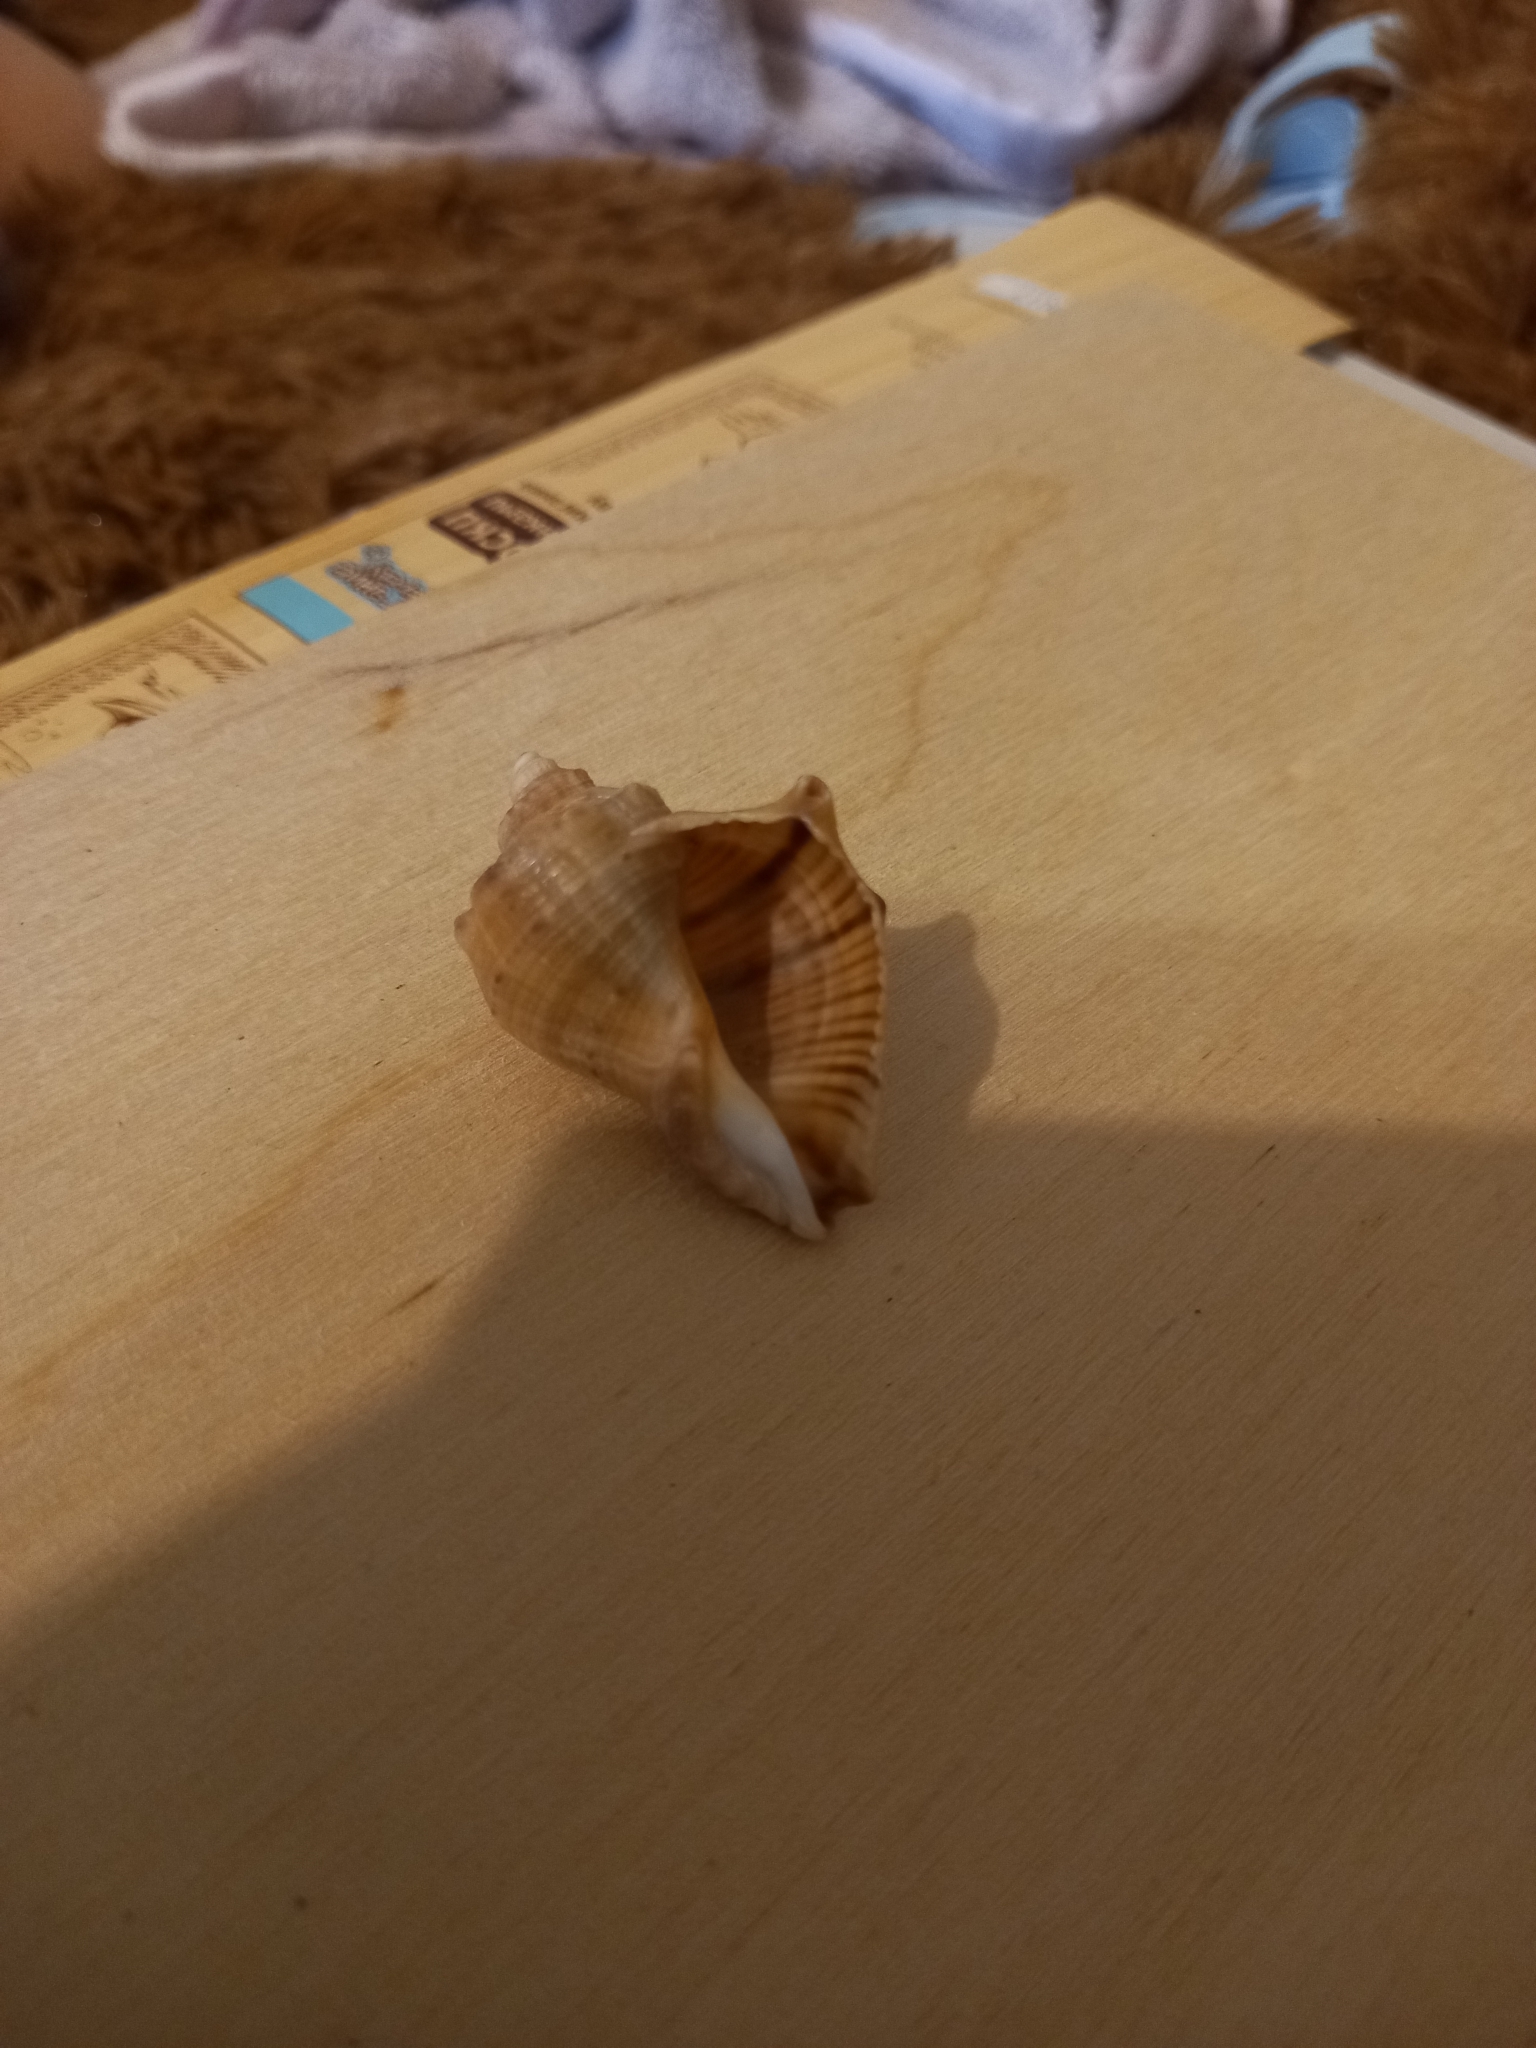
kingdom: Animalia
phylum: Mollusca
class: Gastropoda
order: Neogastropoda
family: Muricidae
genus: Rapana
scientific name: Rapana venosa
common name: Veined rapa whelk
